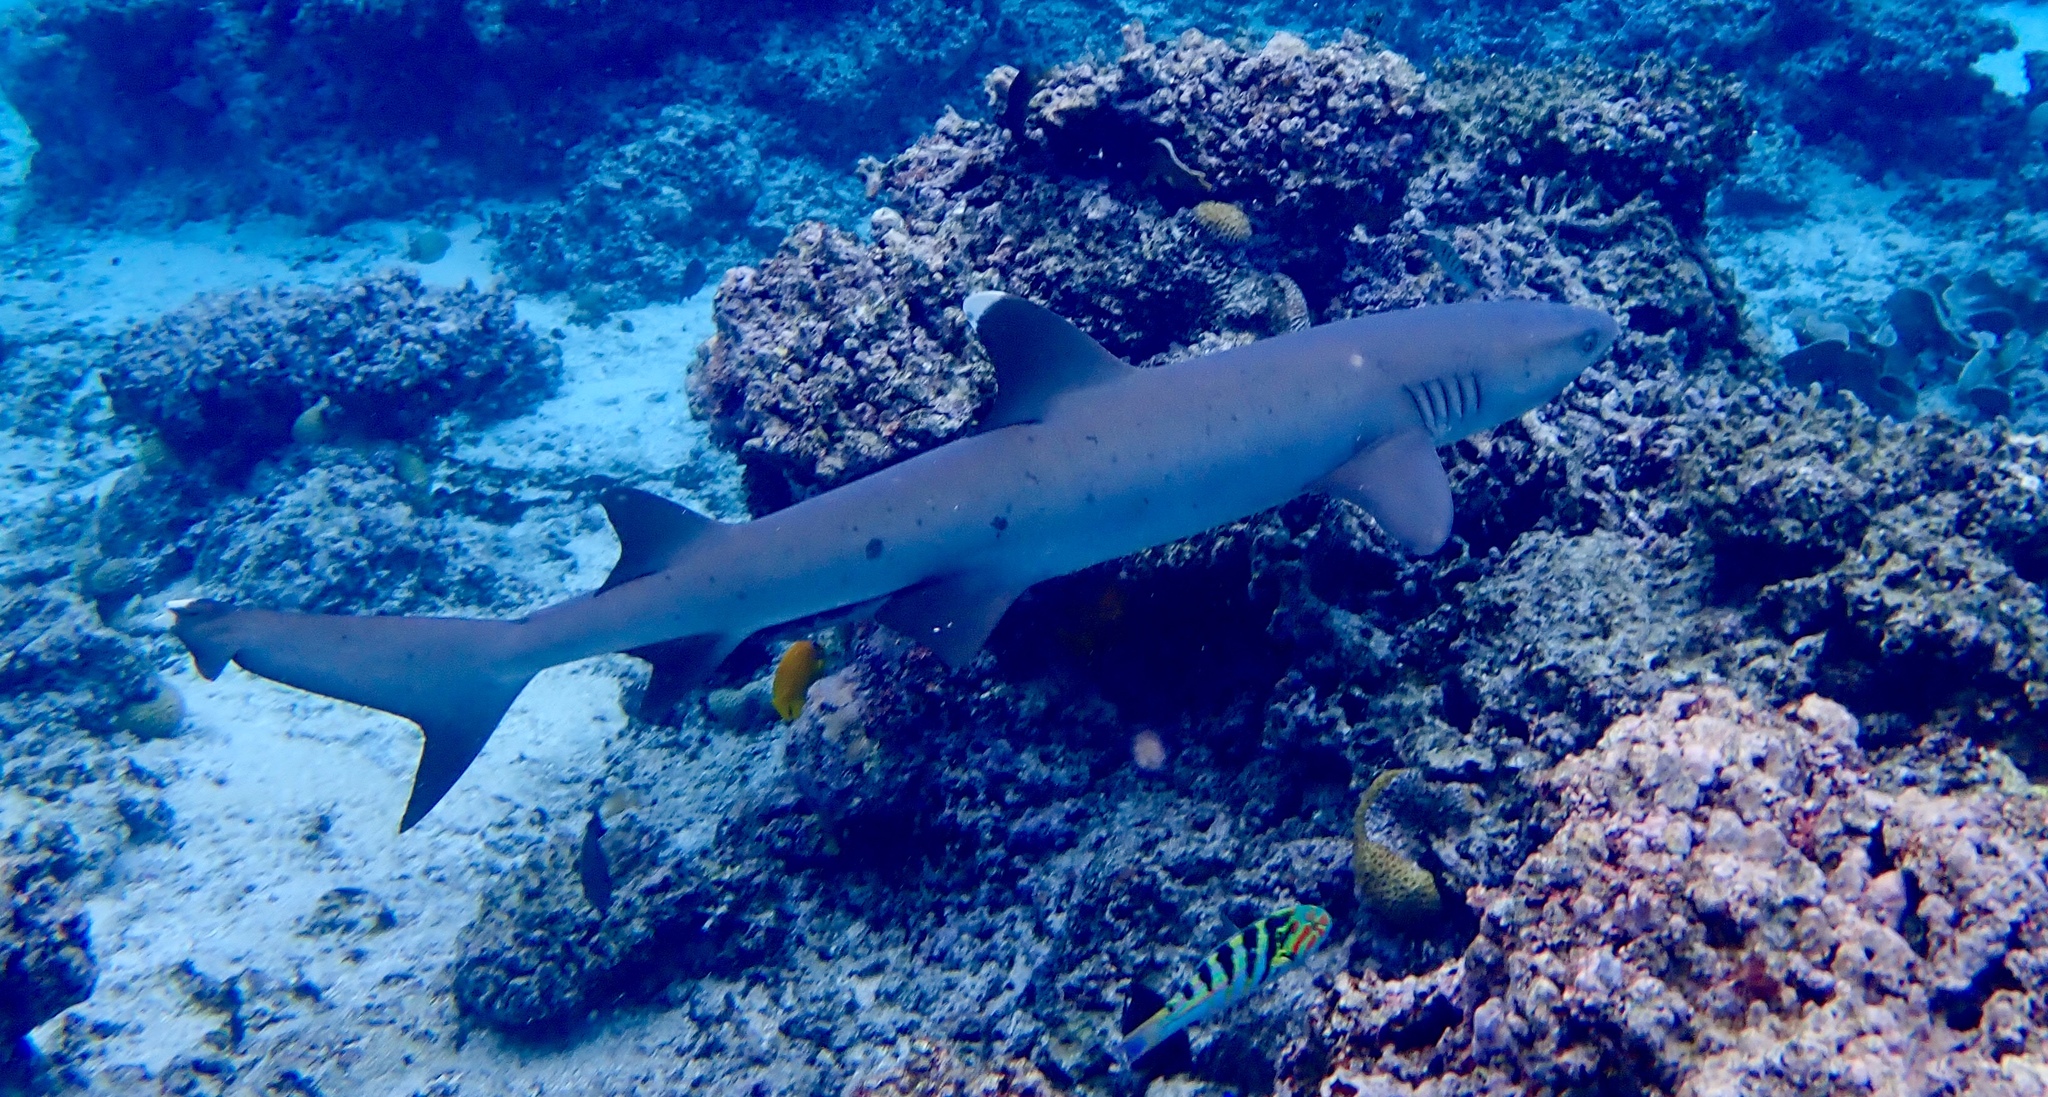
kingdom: Animalia
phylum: Chordata
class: Elasmobranchii
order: Carcharhiniformes
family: Carcharhinidae
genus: Triaenodon
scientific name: Triaenodon obesus
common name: Whitetip reef shark
